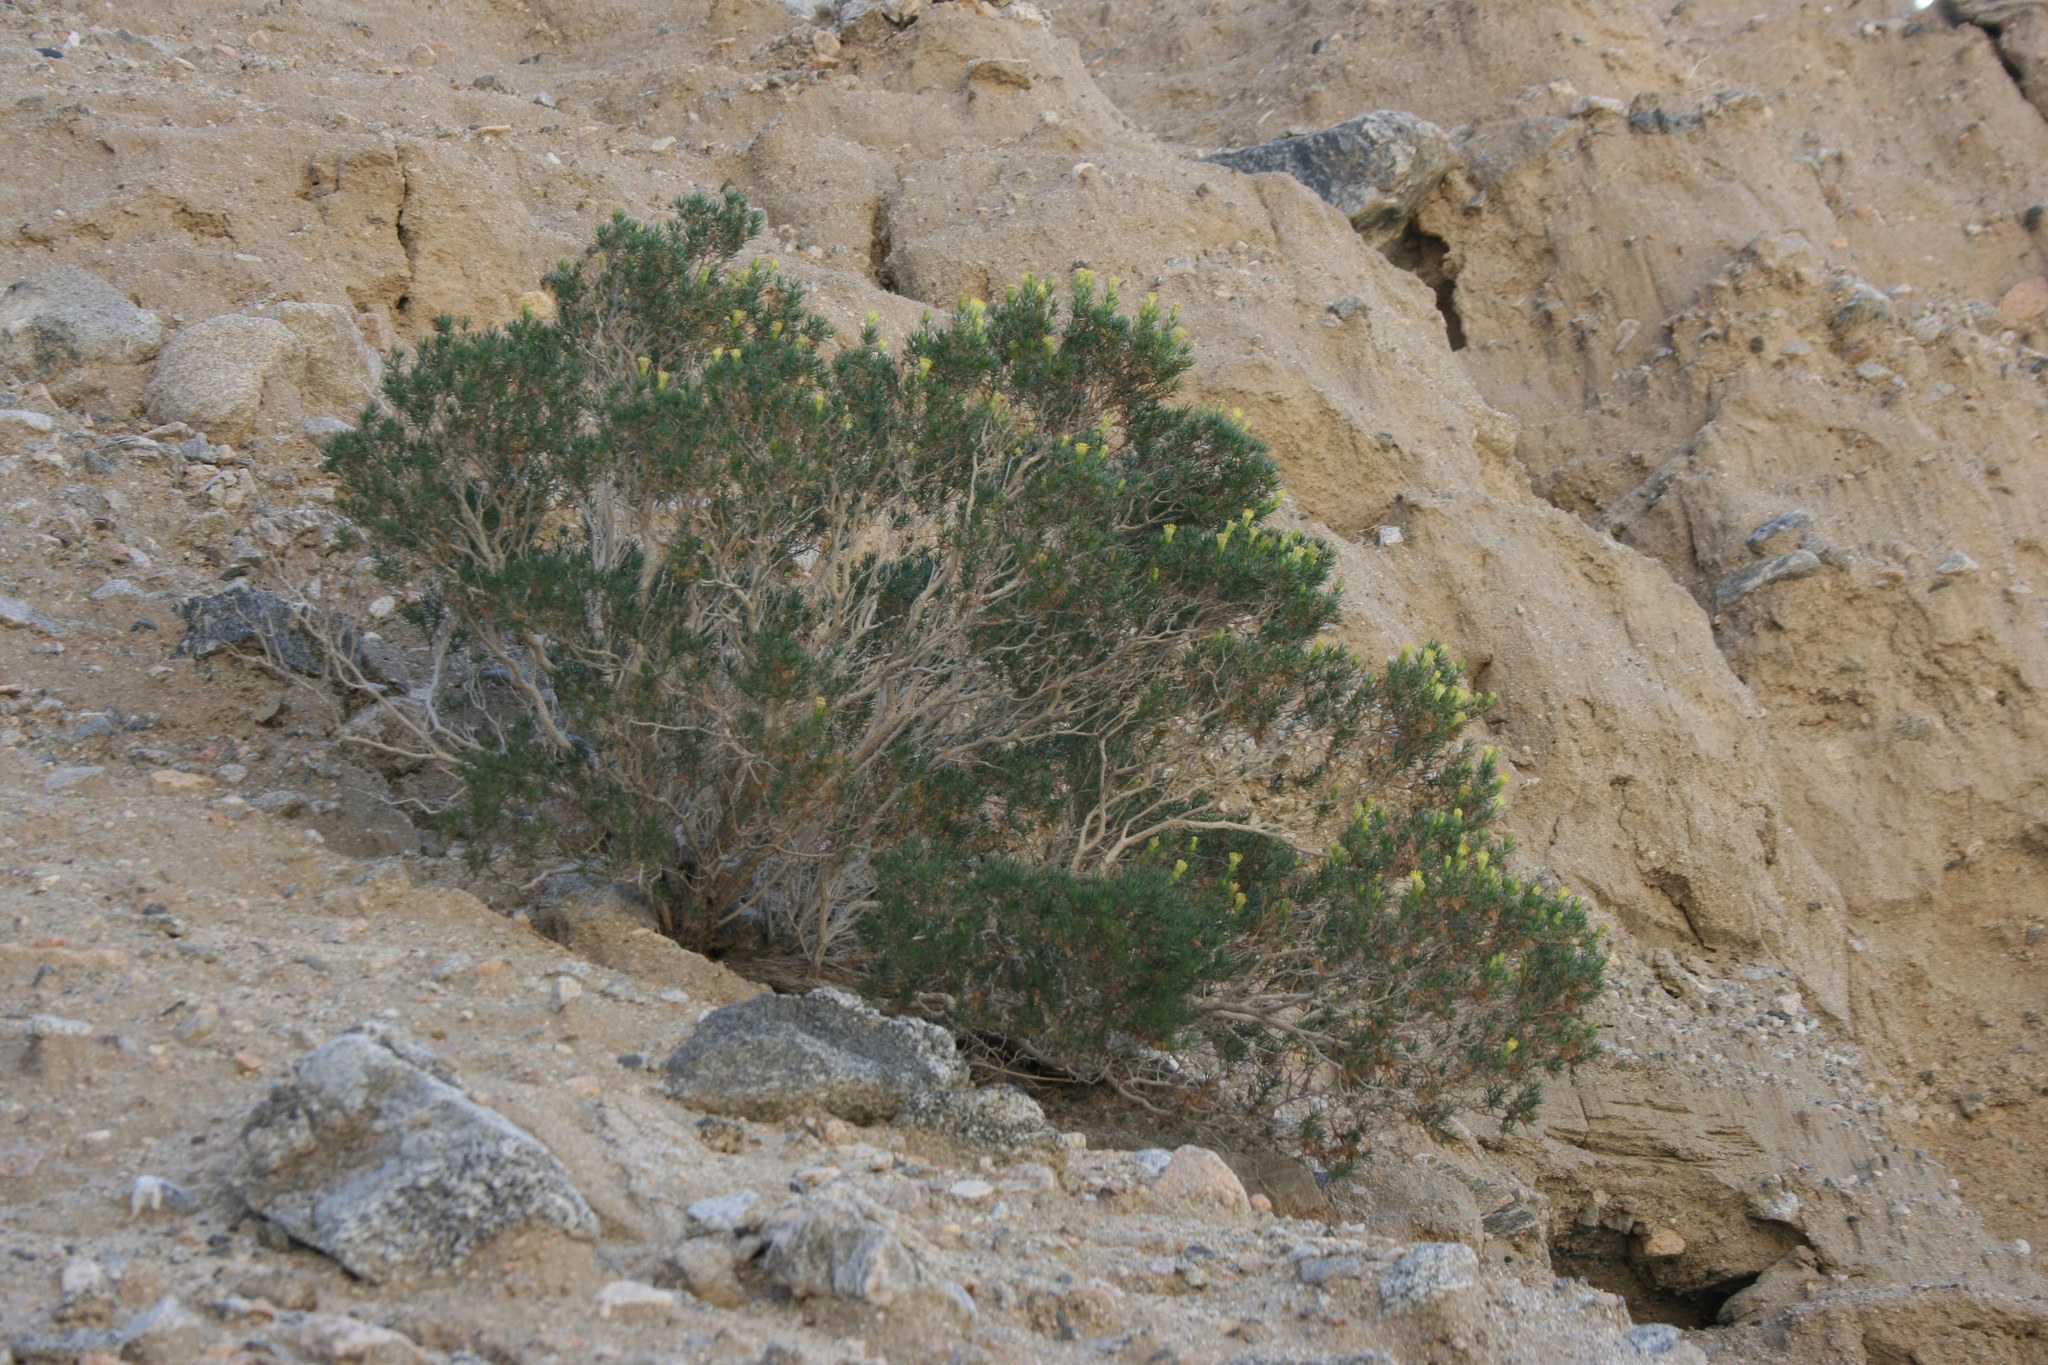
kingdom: Plantae
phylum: Tracheophyta
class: Magnoliopsida
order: Asterales
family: Asteraceae
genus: Peucephyllum
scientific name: Peucephyllum schottii
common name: Pygmy-cedar
